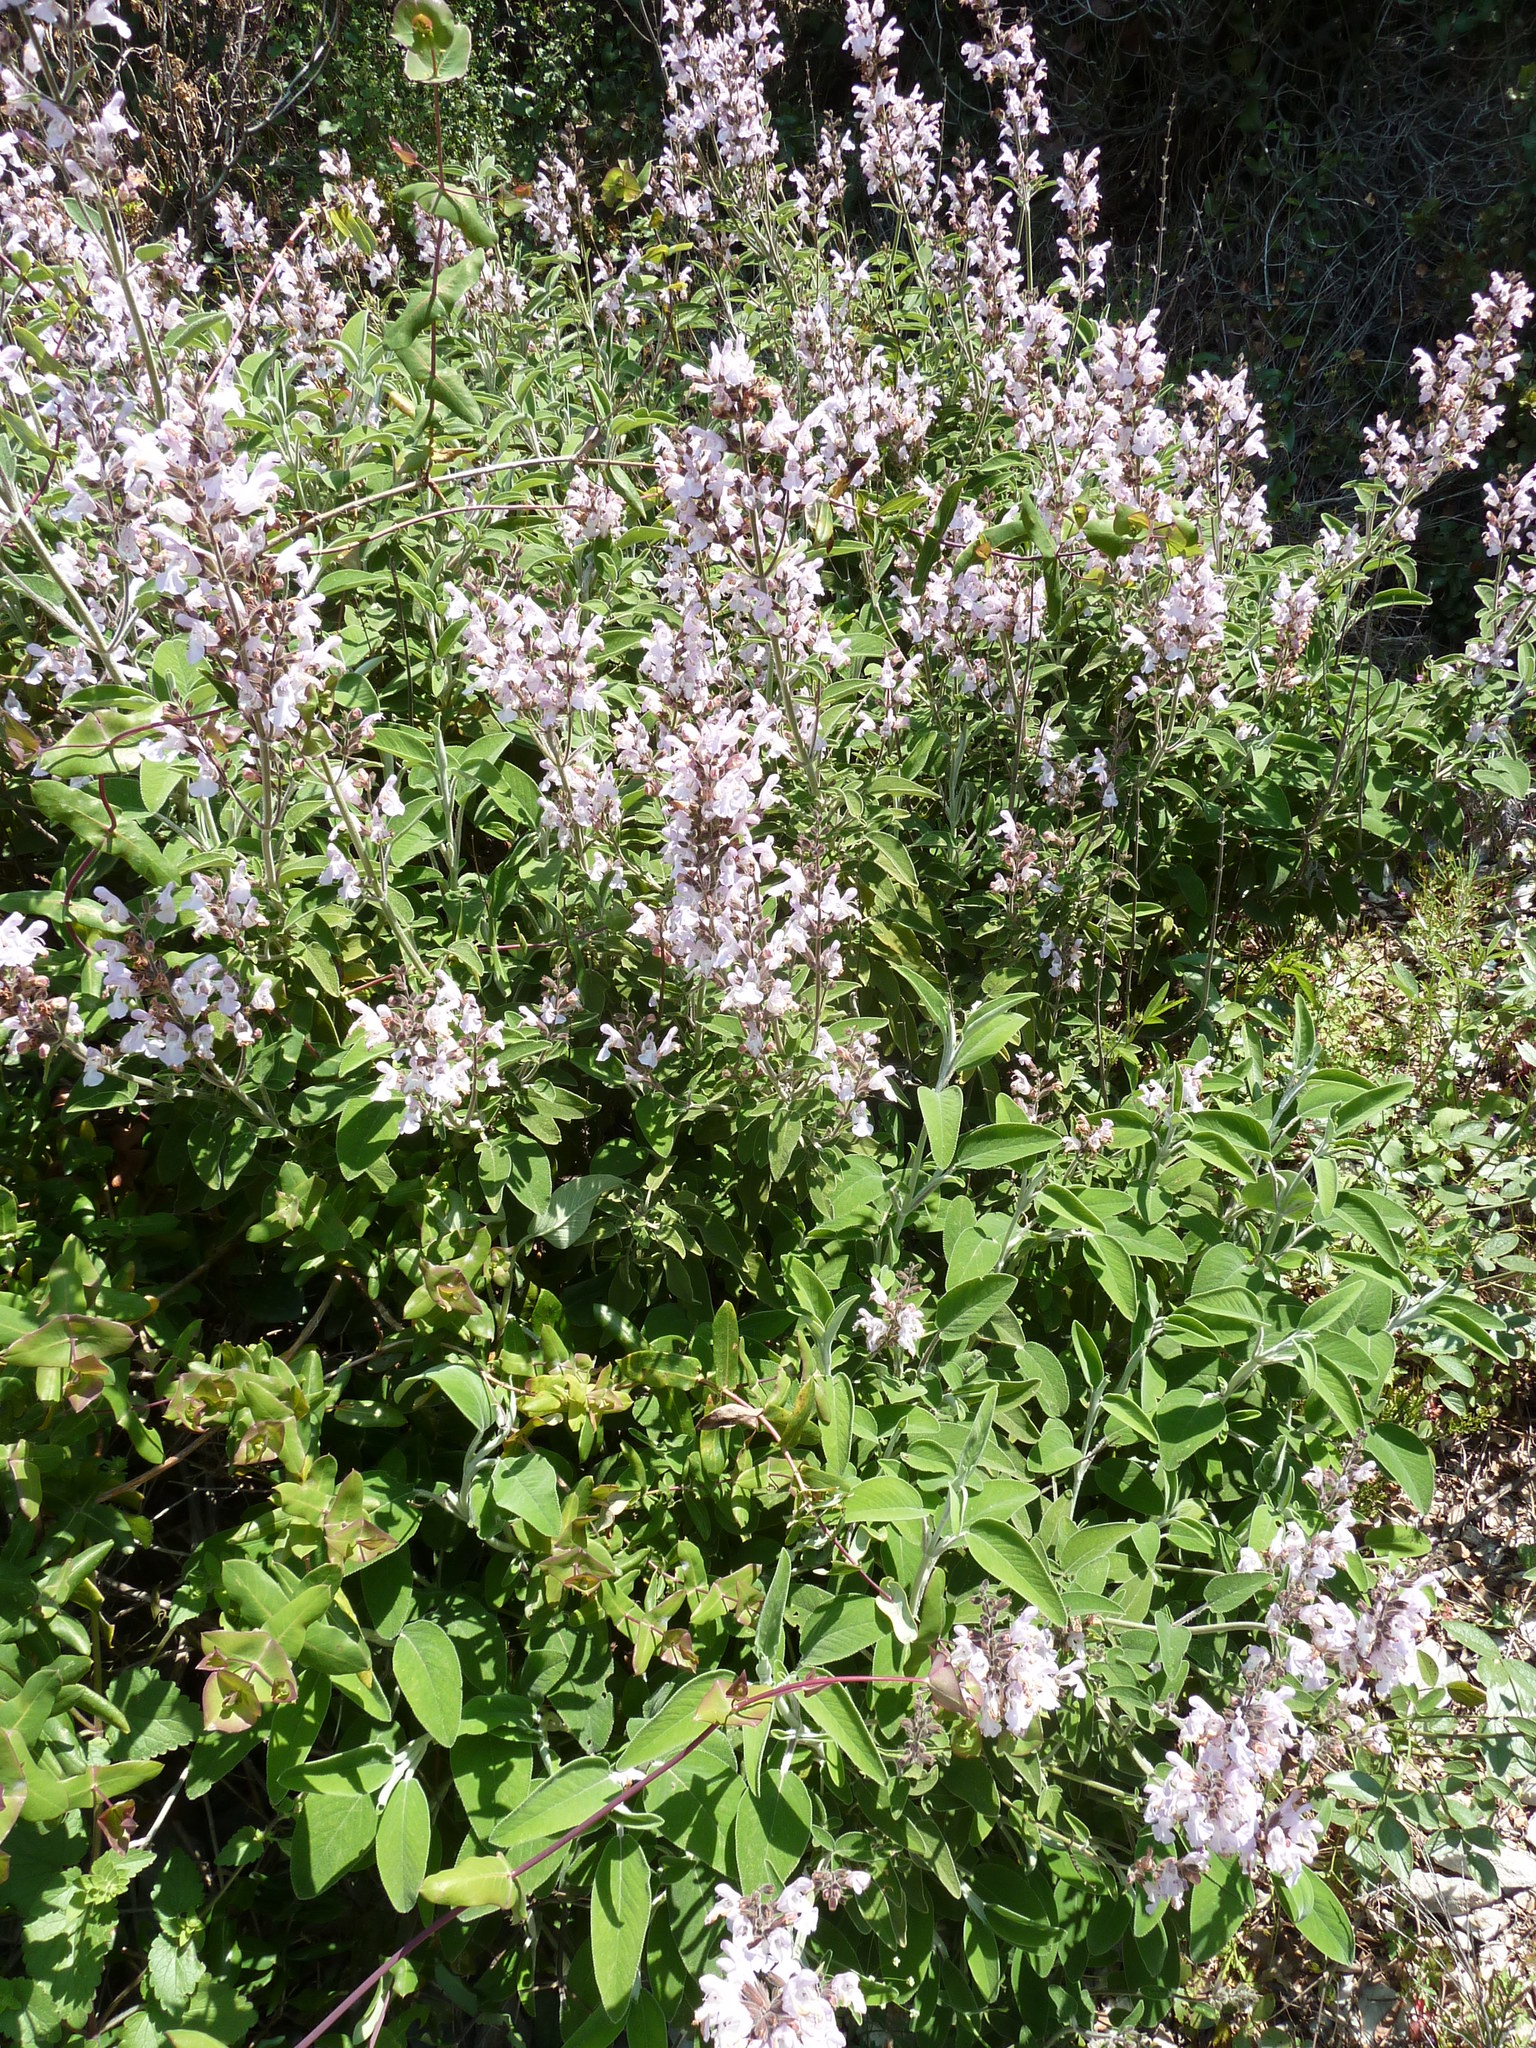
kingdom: Plantae
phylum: Tracheophyta
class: Magnoliopsida
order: Lamiales
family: Lamiaceae
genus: Salvia
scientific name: Salvia fruticosa
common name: Greek sage
